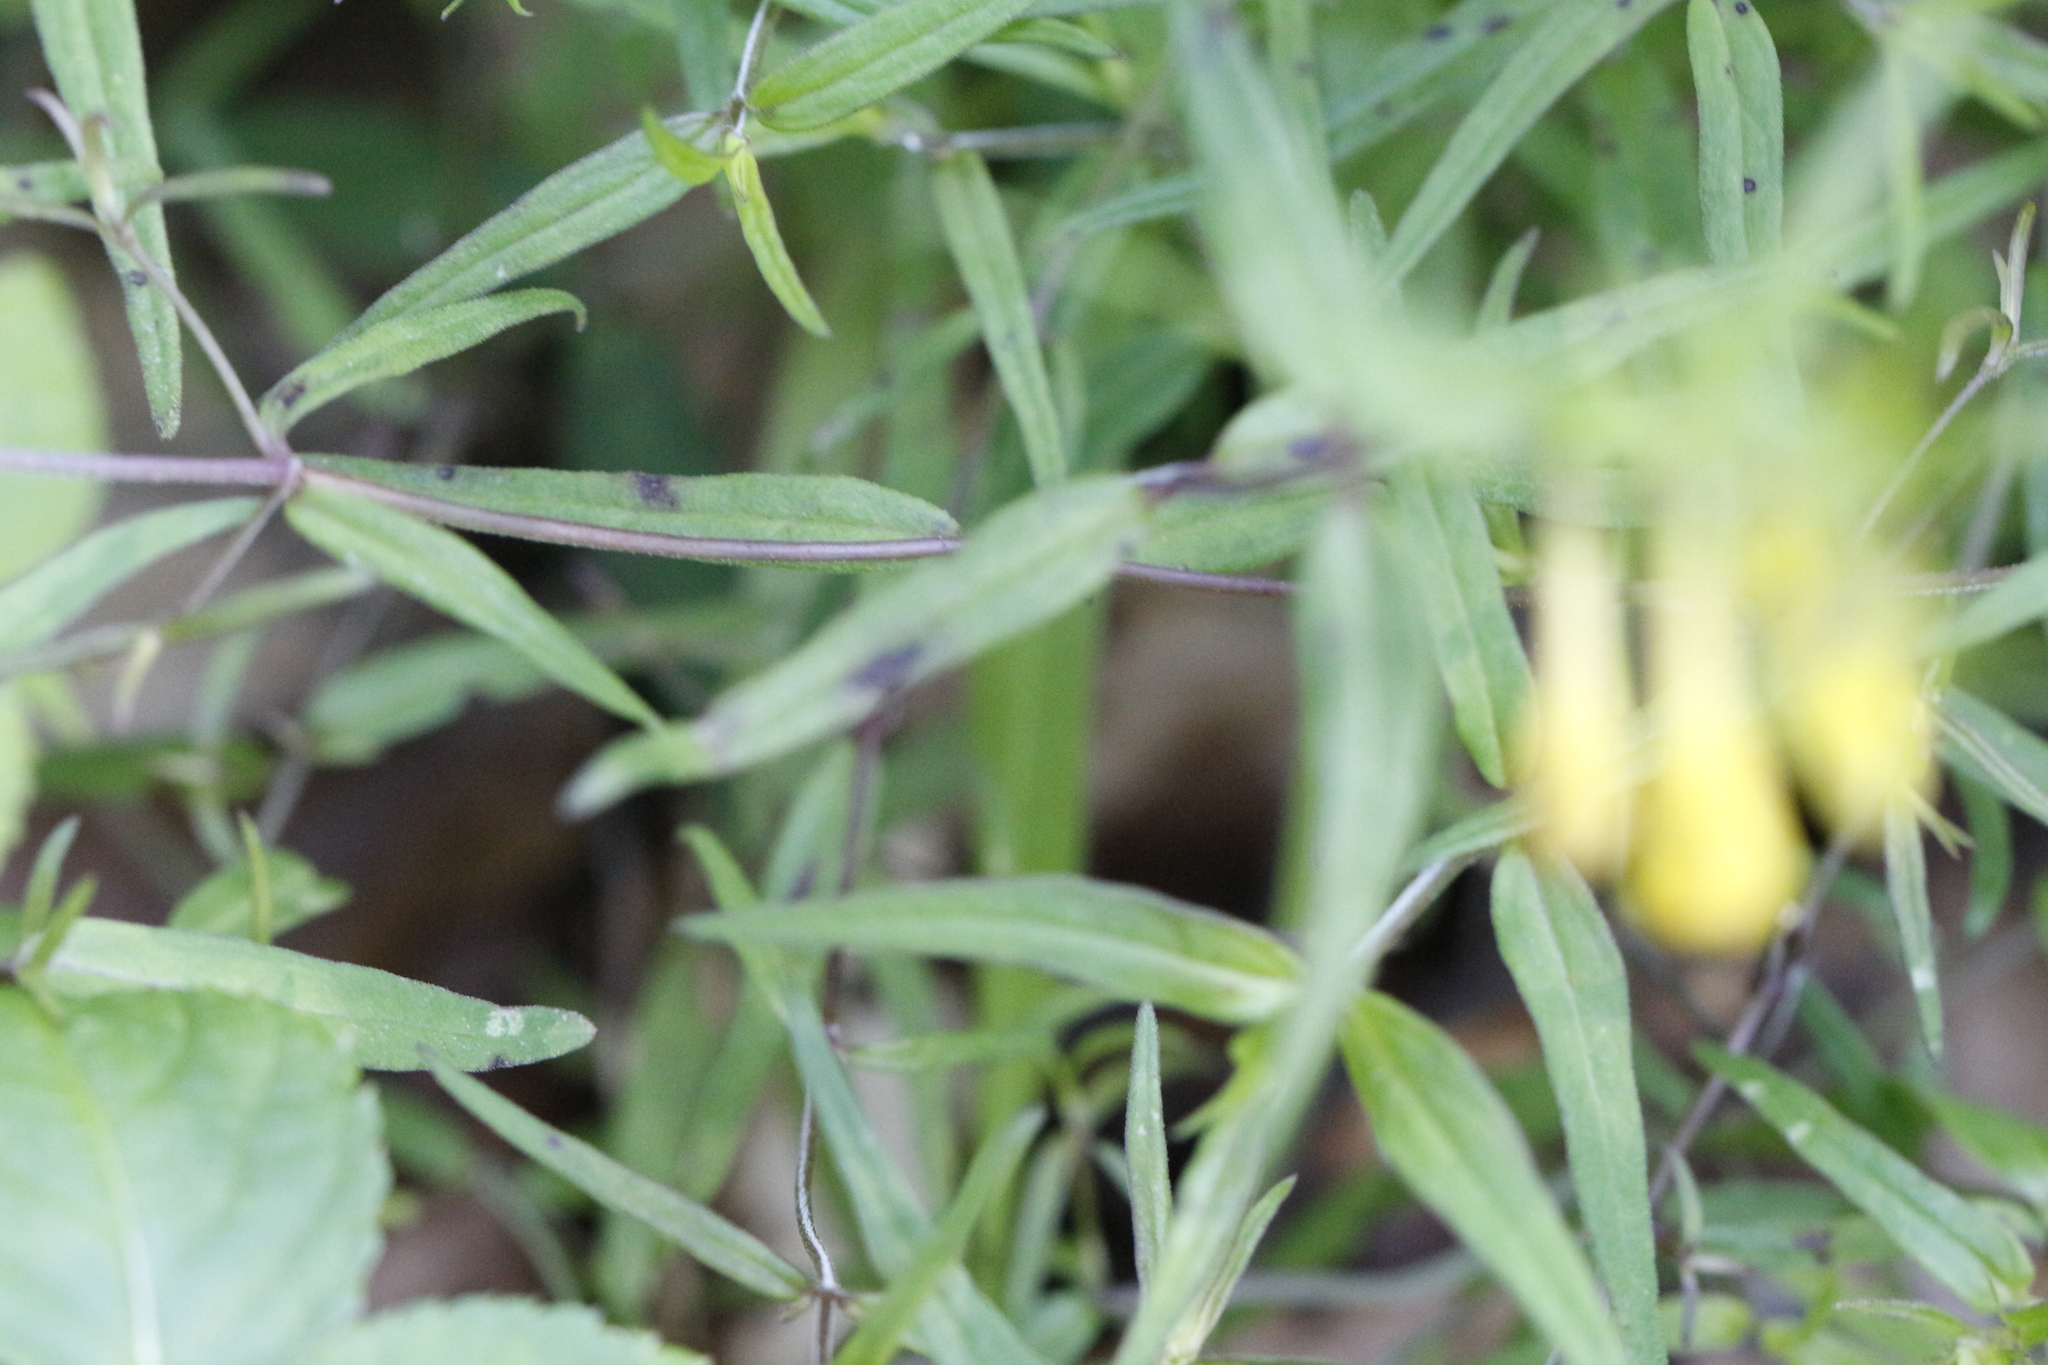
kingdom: Plantae
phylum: Tracheophyta
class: Magnoliopsida
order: Lamiales
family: Orobanchaceae
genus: Melampyrum
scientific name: Melampyrum pratense
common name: Common cow-wheat
